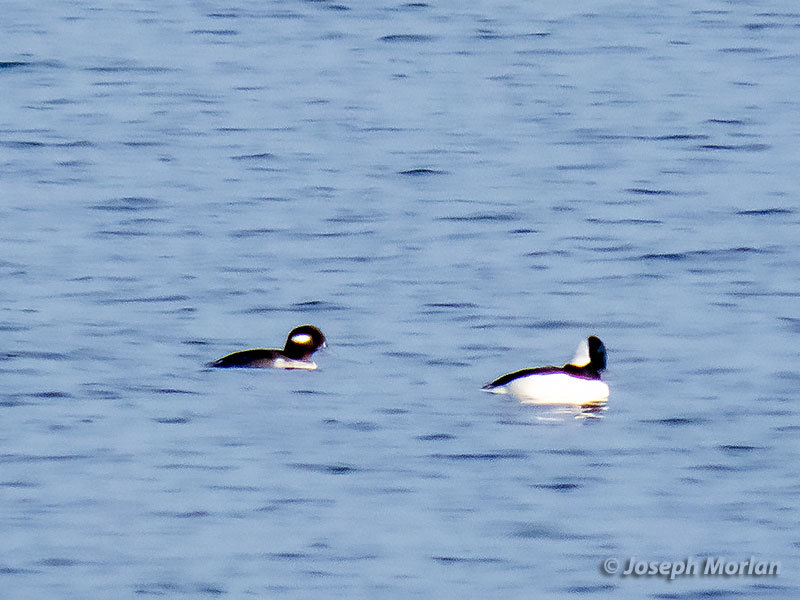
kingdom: Animalia
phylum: Chordata
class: Aves
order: Anseriformes
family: Anatidae
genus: Bucephala
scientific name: Bucephala albeola
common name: Bufflehead
